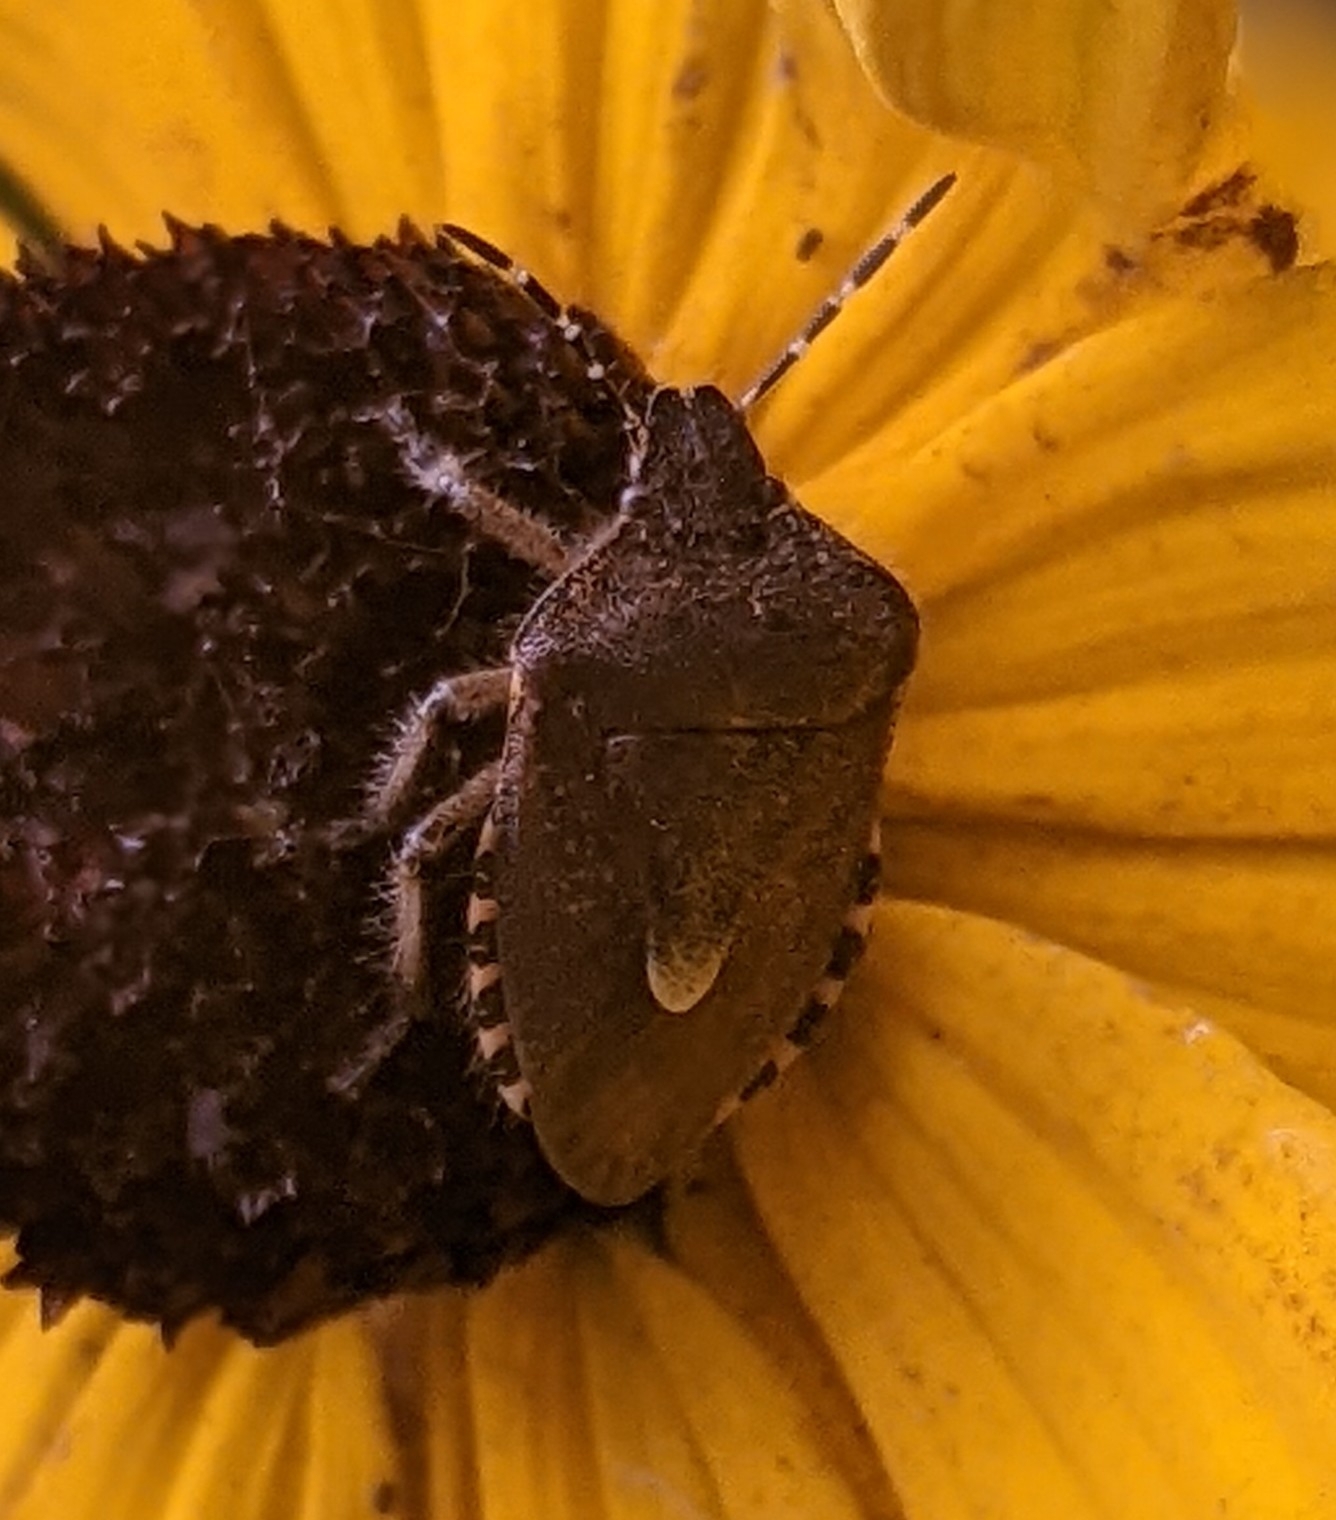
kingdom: Animalia
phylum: Arthropoda
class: Insecta
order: Hemiptera
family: Pentatomidae
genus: Dolycoris
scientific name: Dolycoris baccarum
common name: Sloe bug
